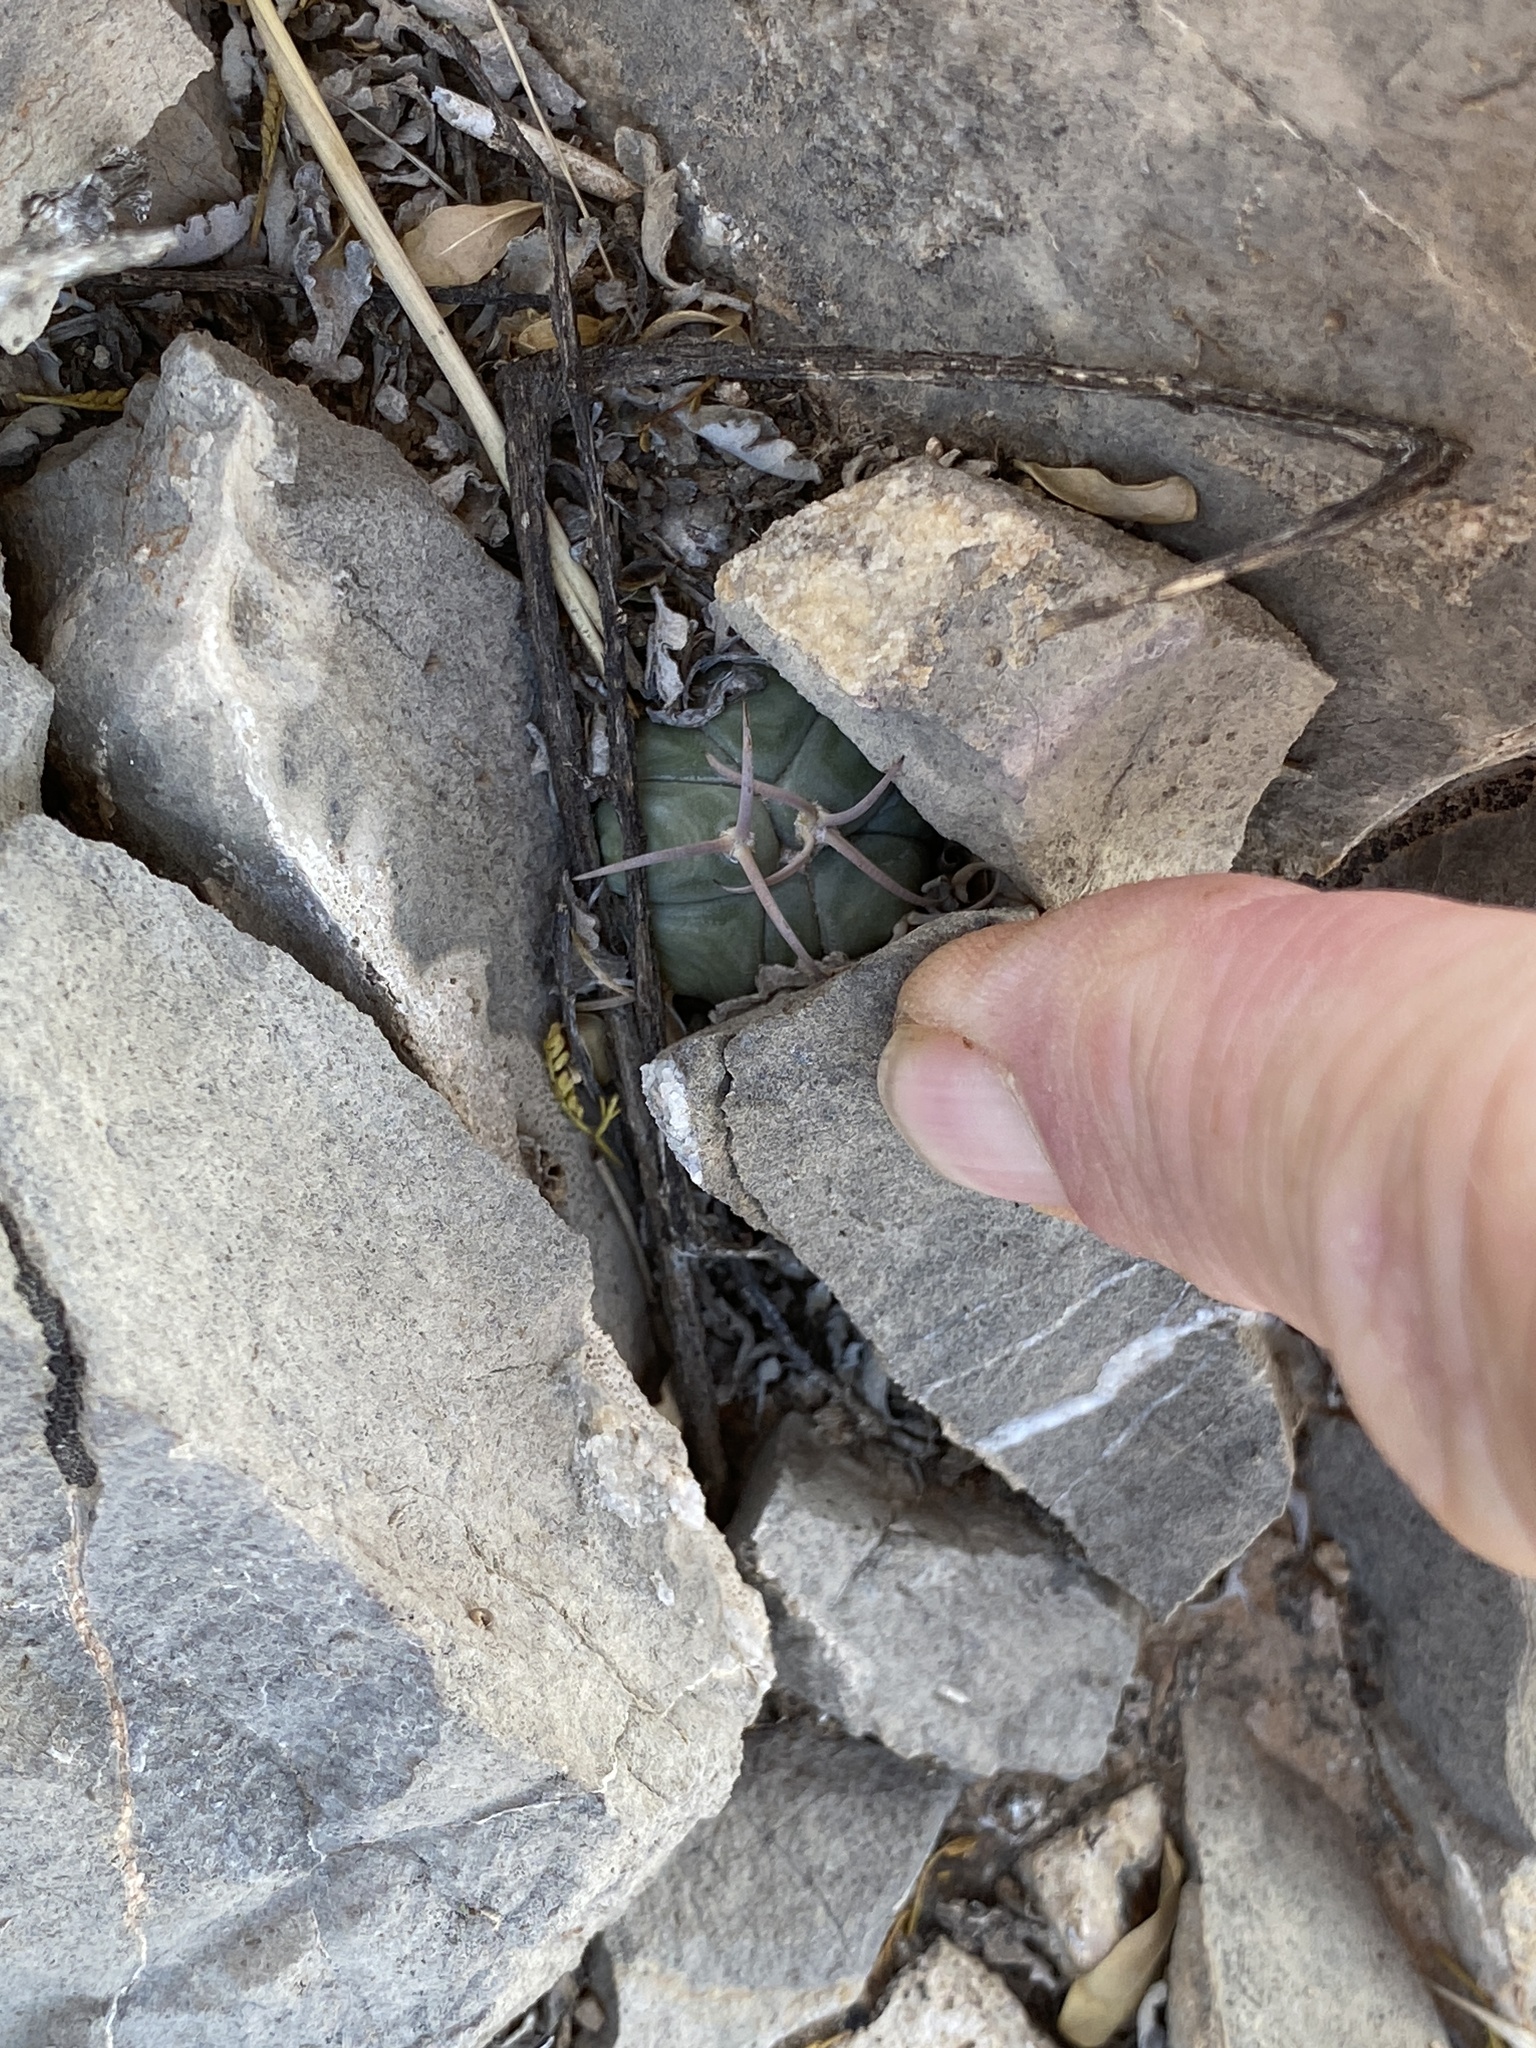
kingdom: Plantae
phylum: Tracheophyta
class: Magnoliopsida
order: Caryophyllales
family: Cactaceae
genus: Echinocactus
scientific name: Echinocactus horizonthalonius
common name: Devilshead
